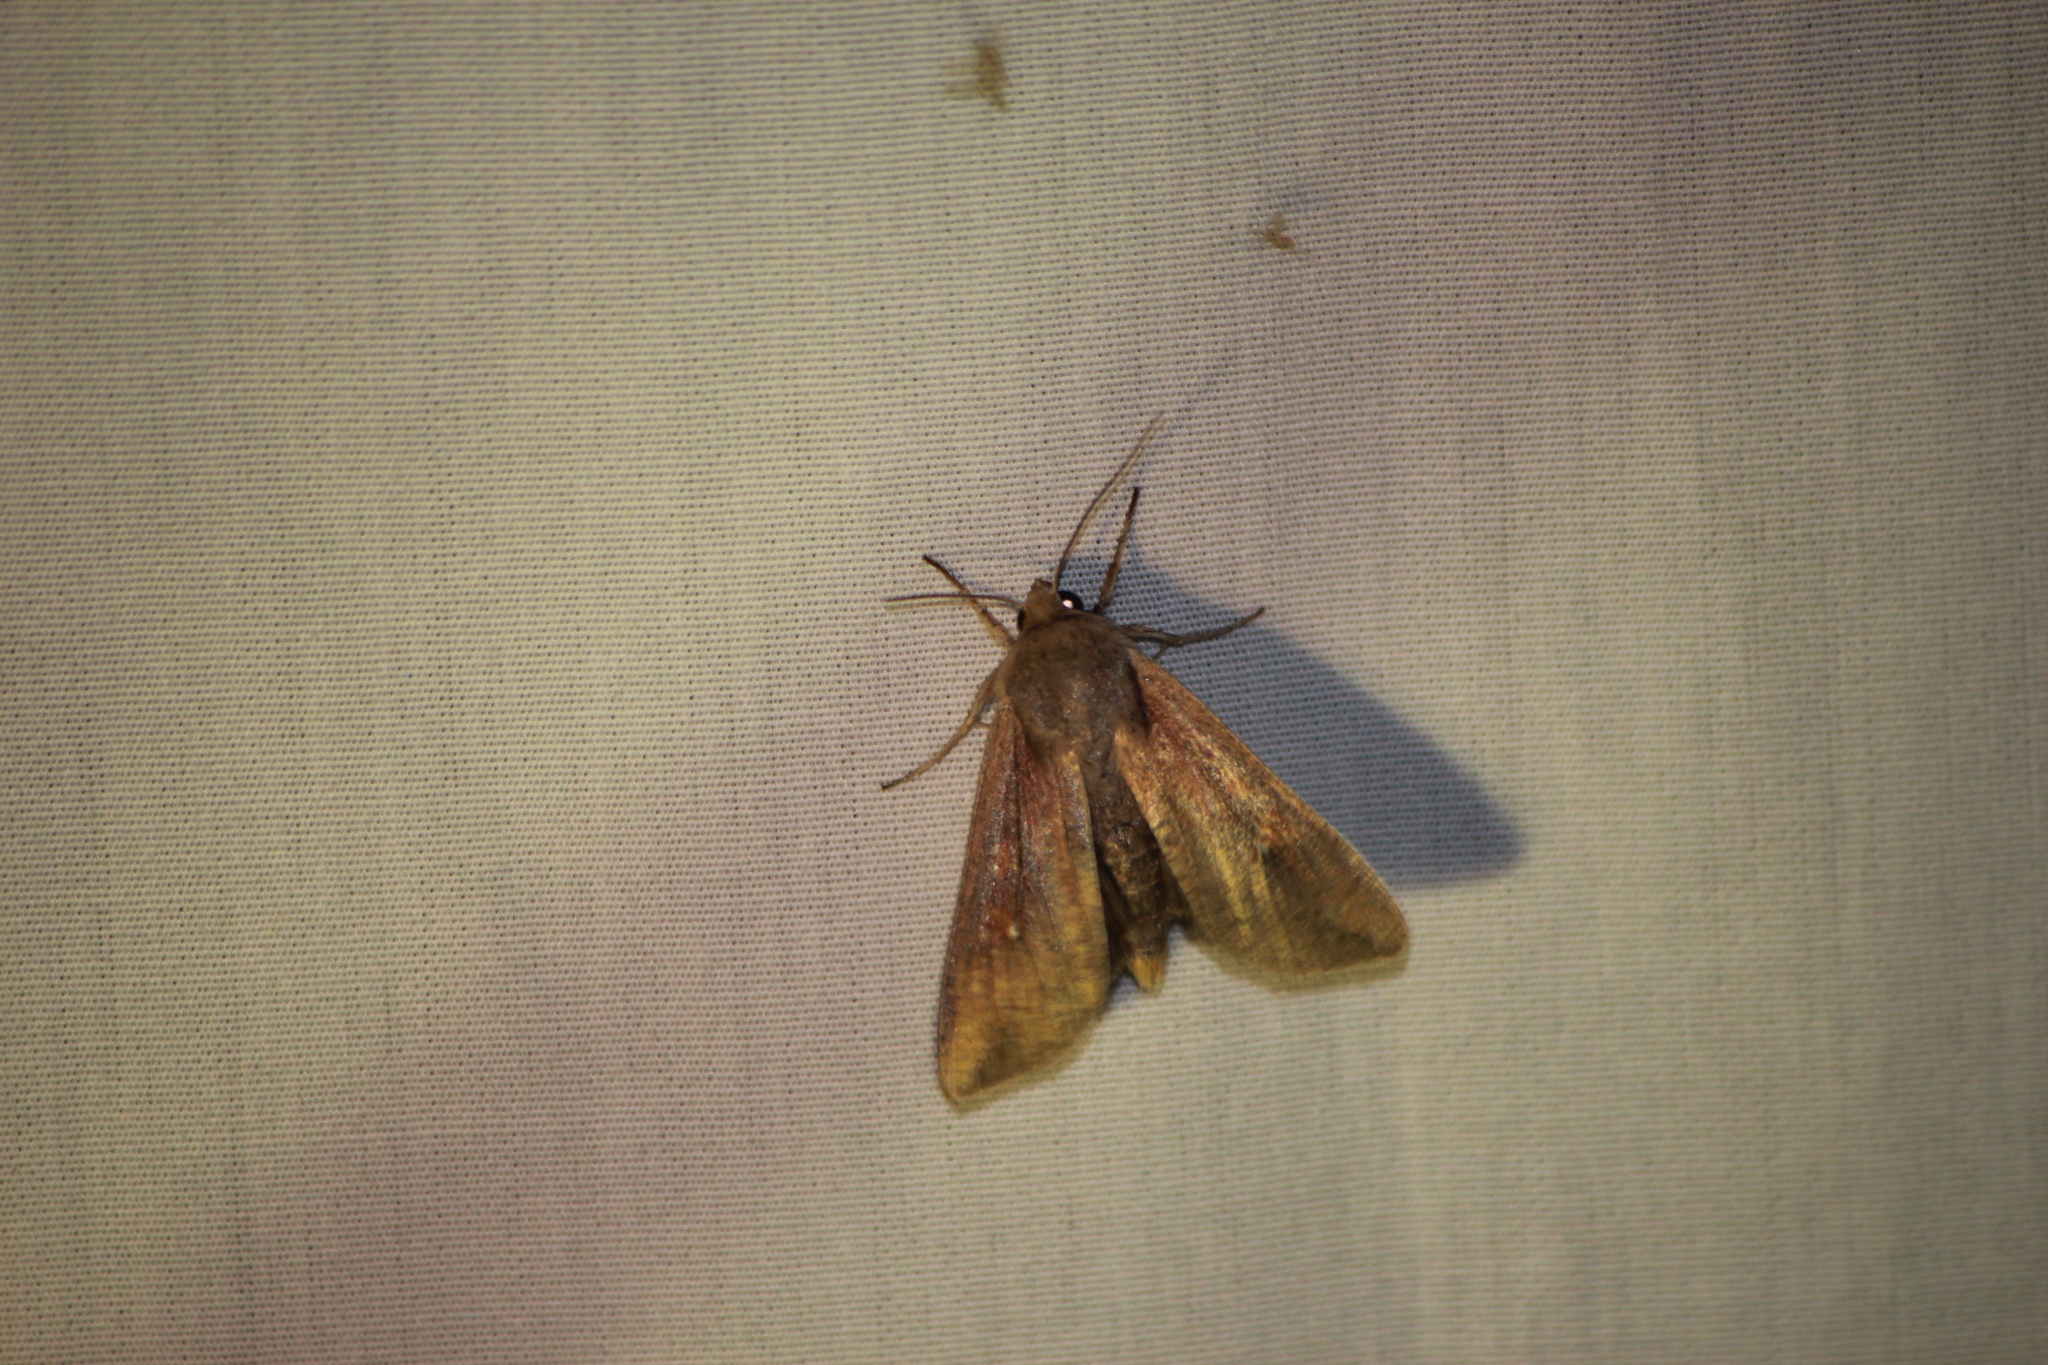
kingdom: Animalia
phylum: Arthropoda
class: Insecta
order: Lepidoptera
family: Noctuidae
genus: Mythimna
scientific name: Mythimna unipuncta
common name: White-speck
